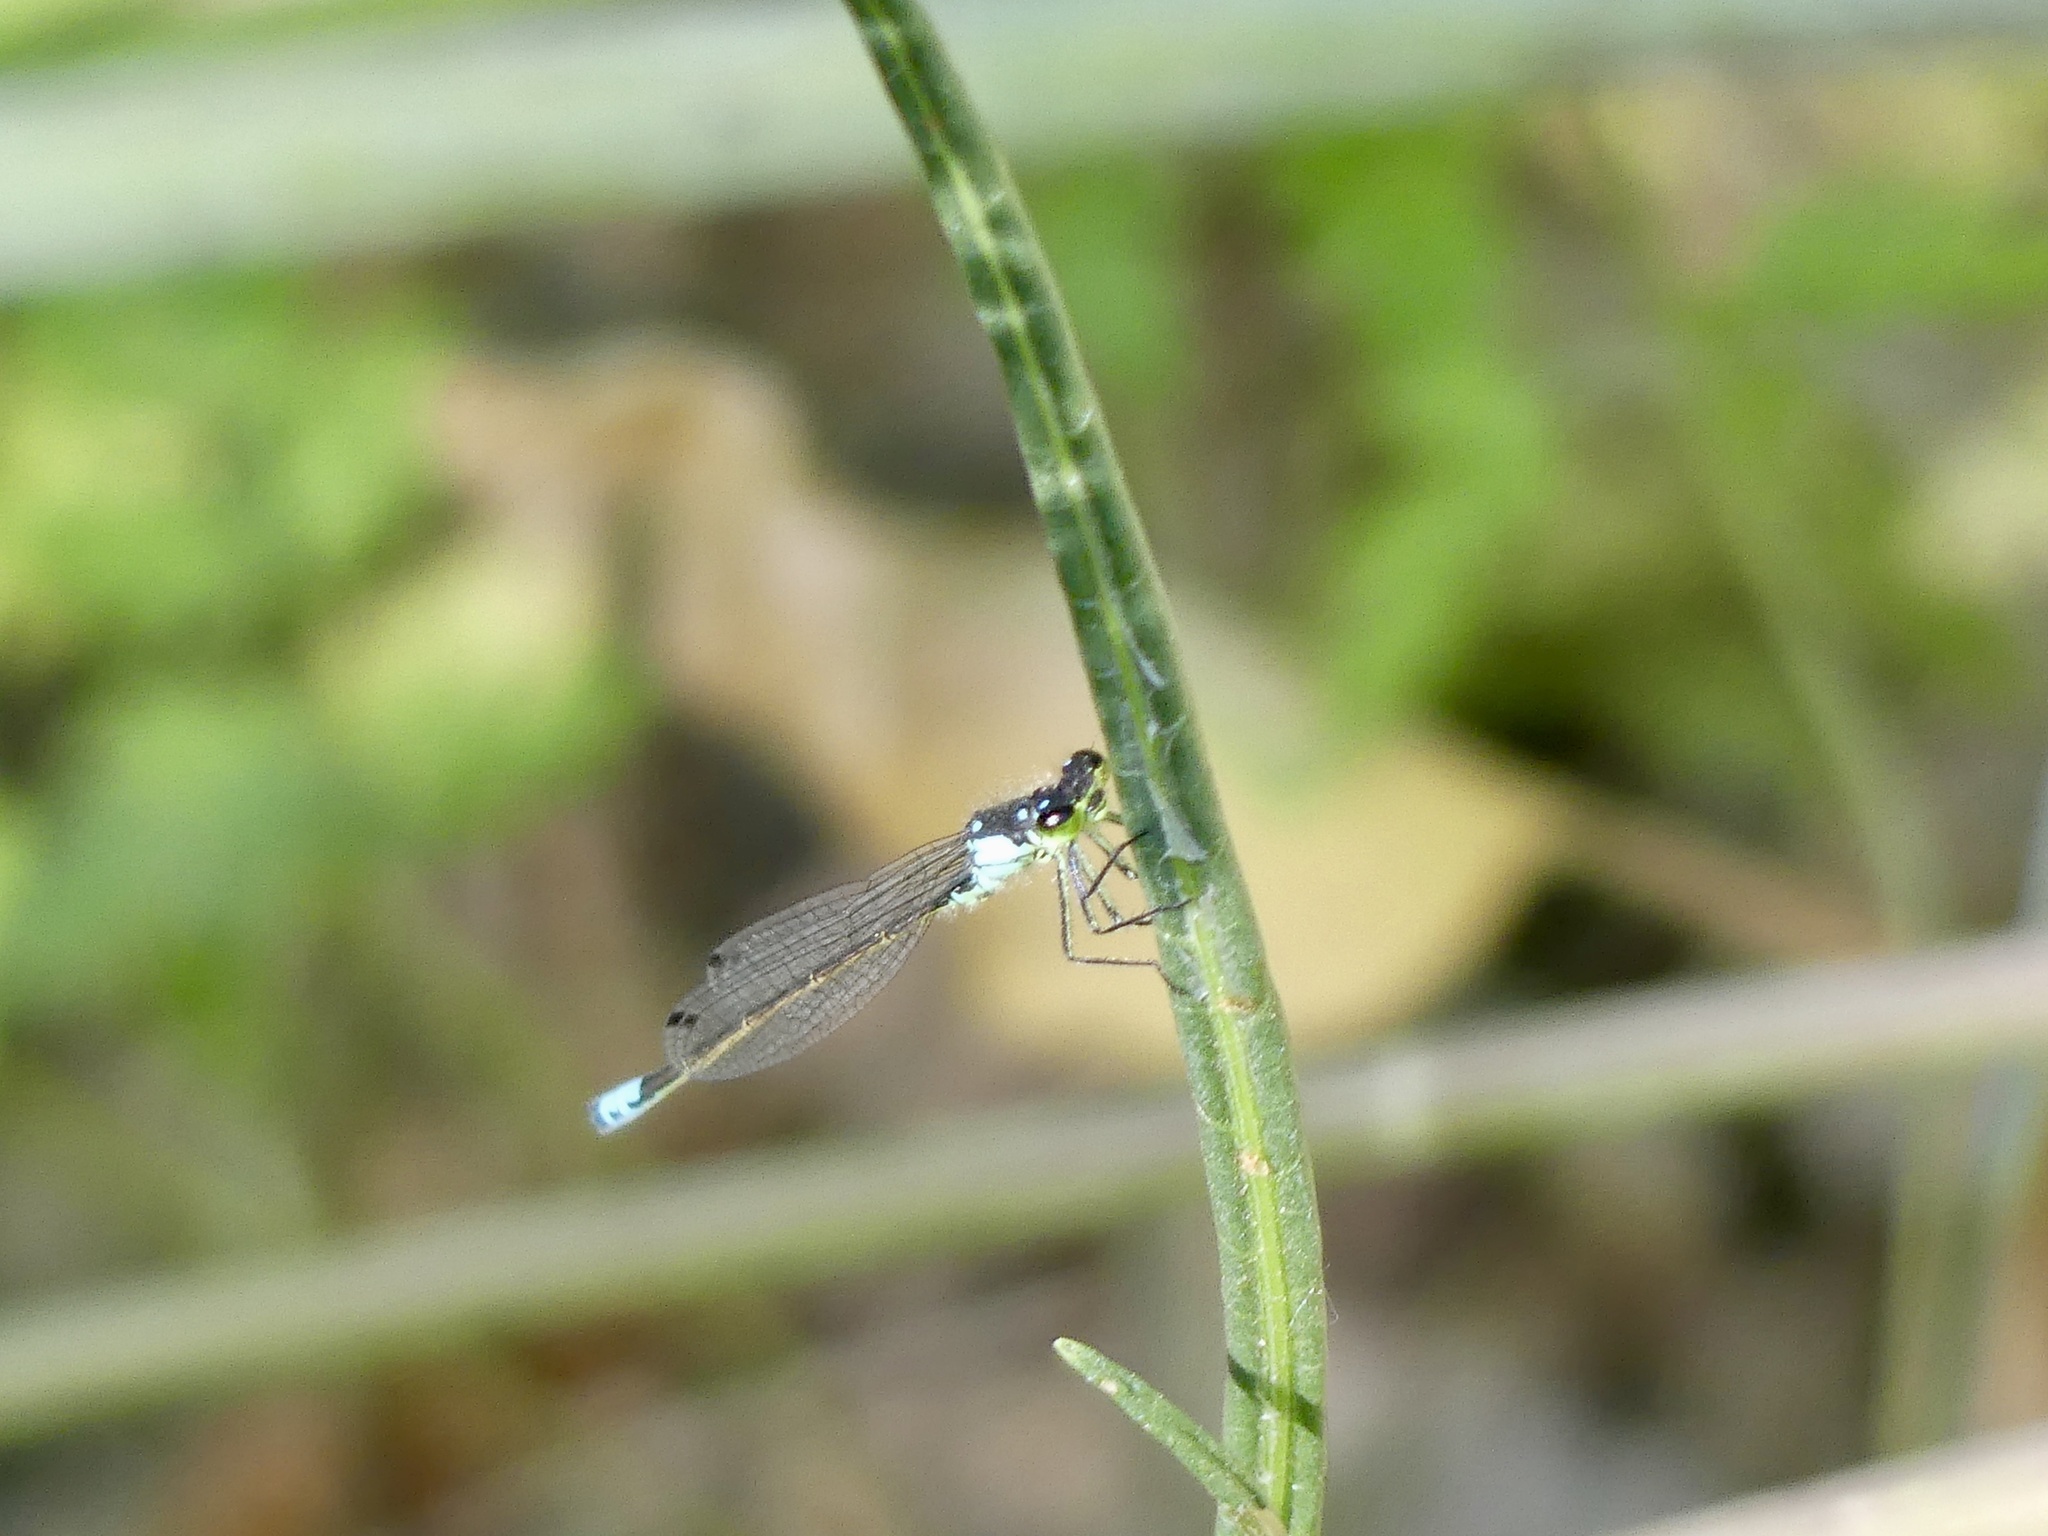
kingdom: Animalia
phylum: Arthropoda
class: Insecta
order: Odonata
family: Coenagrionidae
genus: Ischnura
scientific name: Ischnura cervula
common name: Pacific forktail
